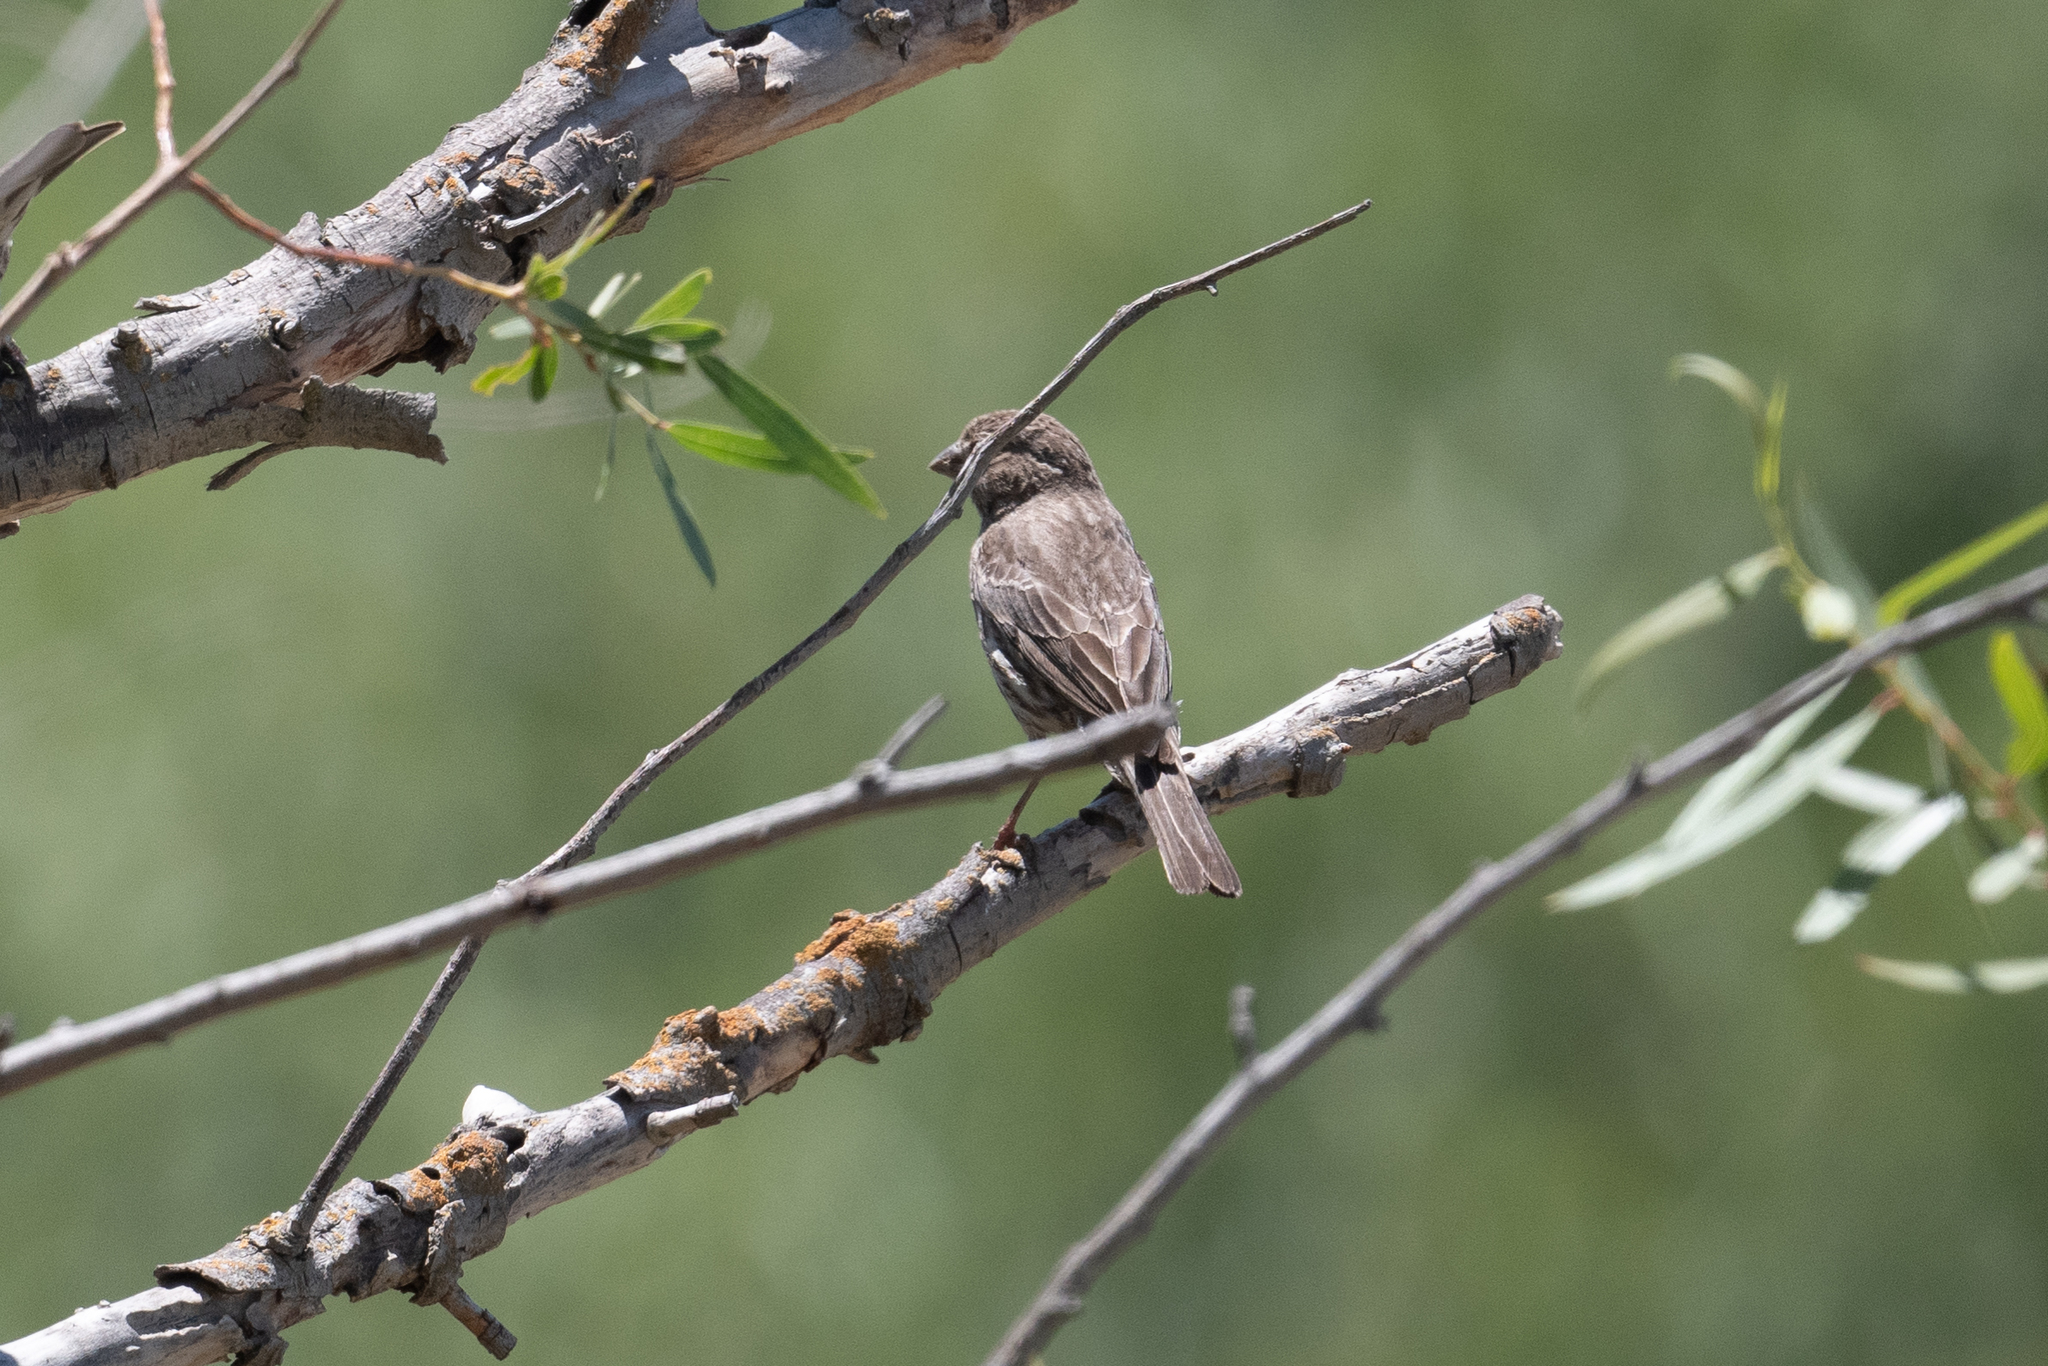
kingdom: Animalia
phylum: Chordata
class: Aves
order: Passeriformes
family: Fringillidae
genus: Haemorhous
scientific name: Haemorhous mexicanus
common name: House finch
